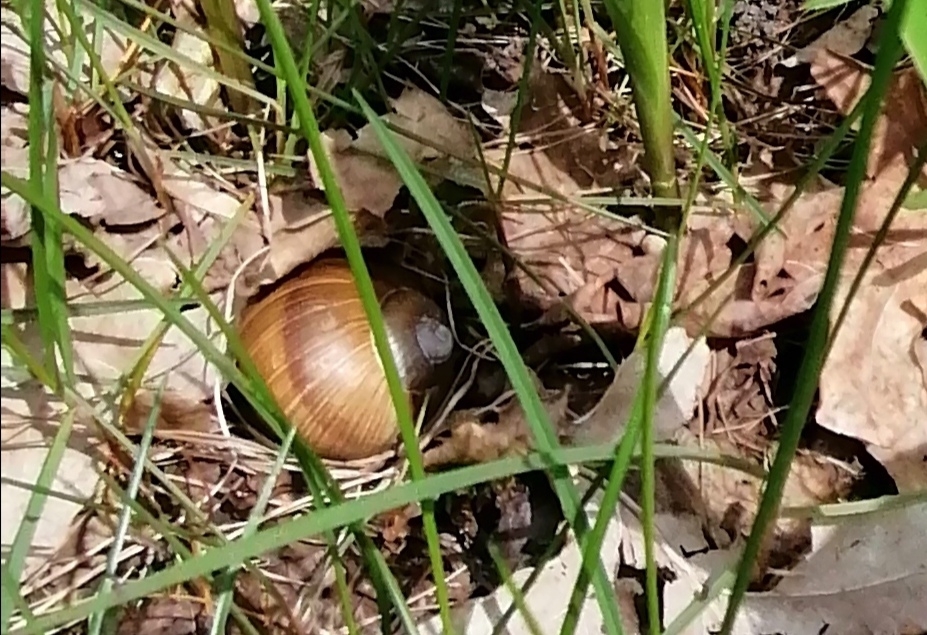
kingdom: Animalia
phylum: Mollusca
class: Gastropoda
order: Stylommatophora
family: Helicidae
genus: Helix
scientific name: Helix pomatia
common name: Roman snail
